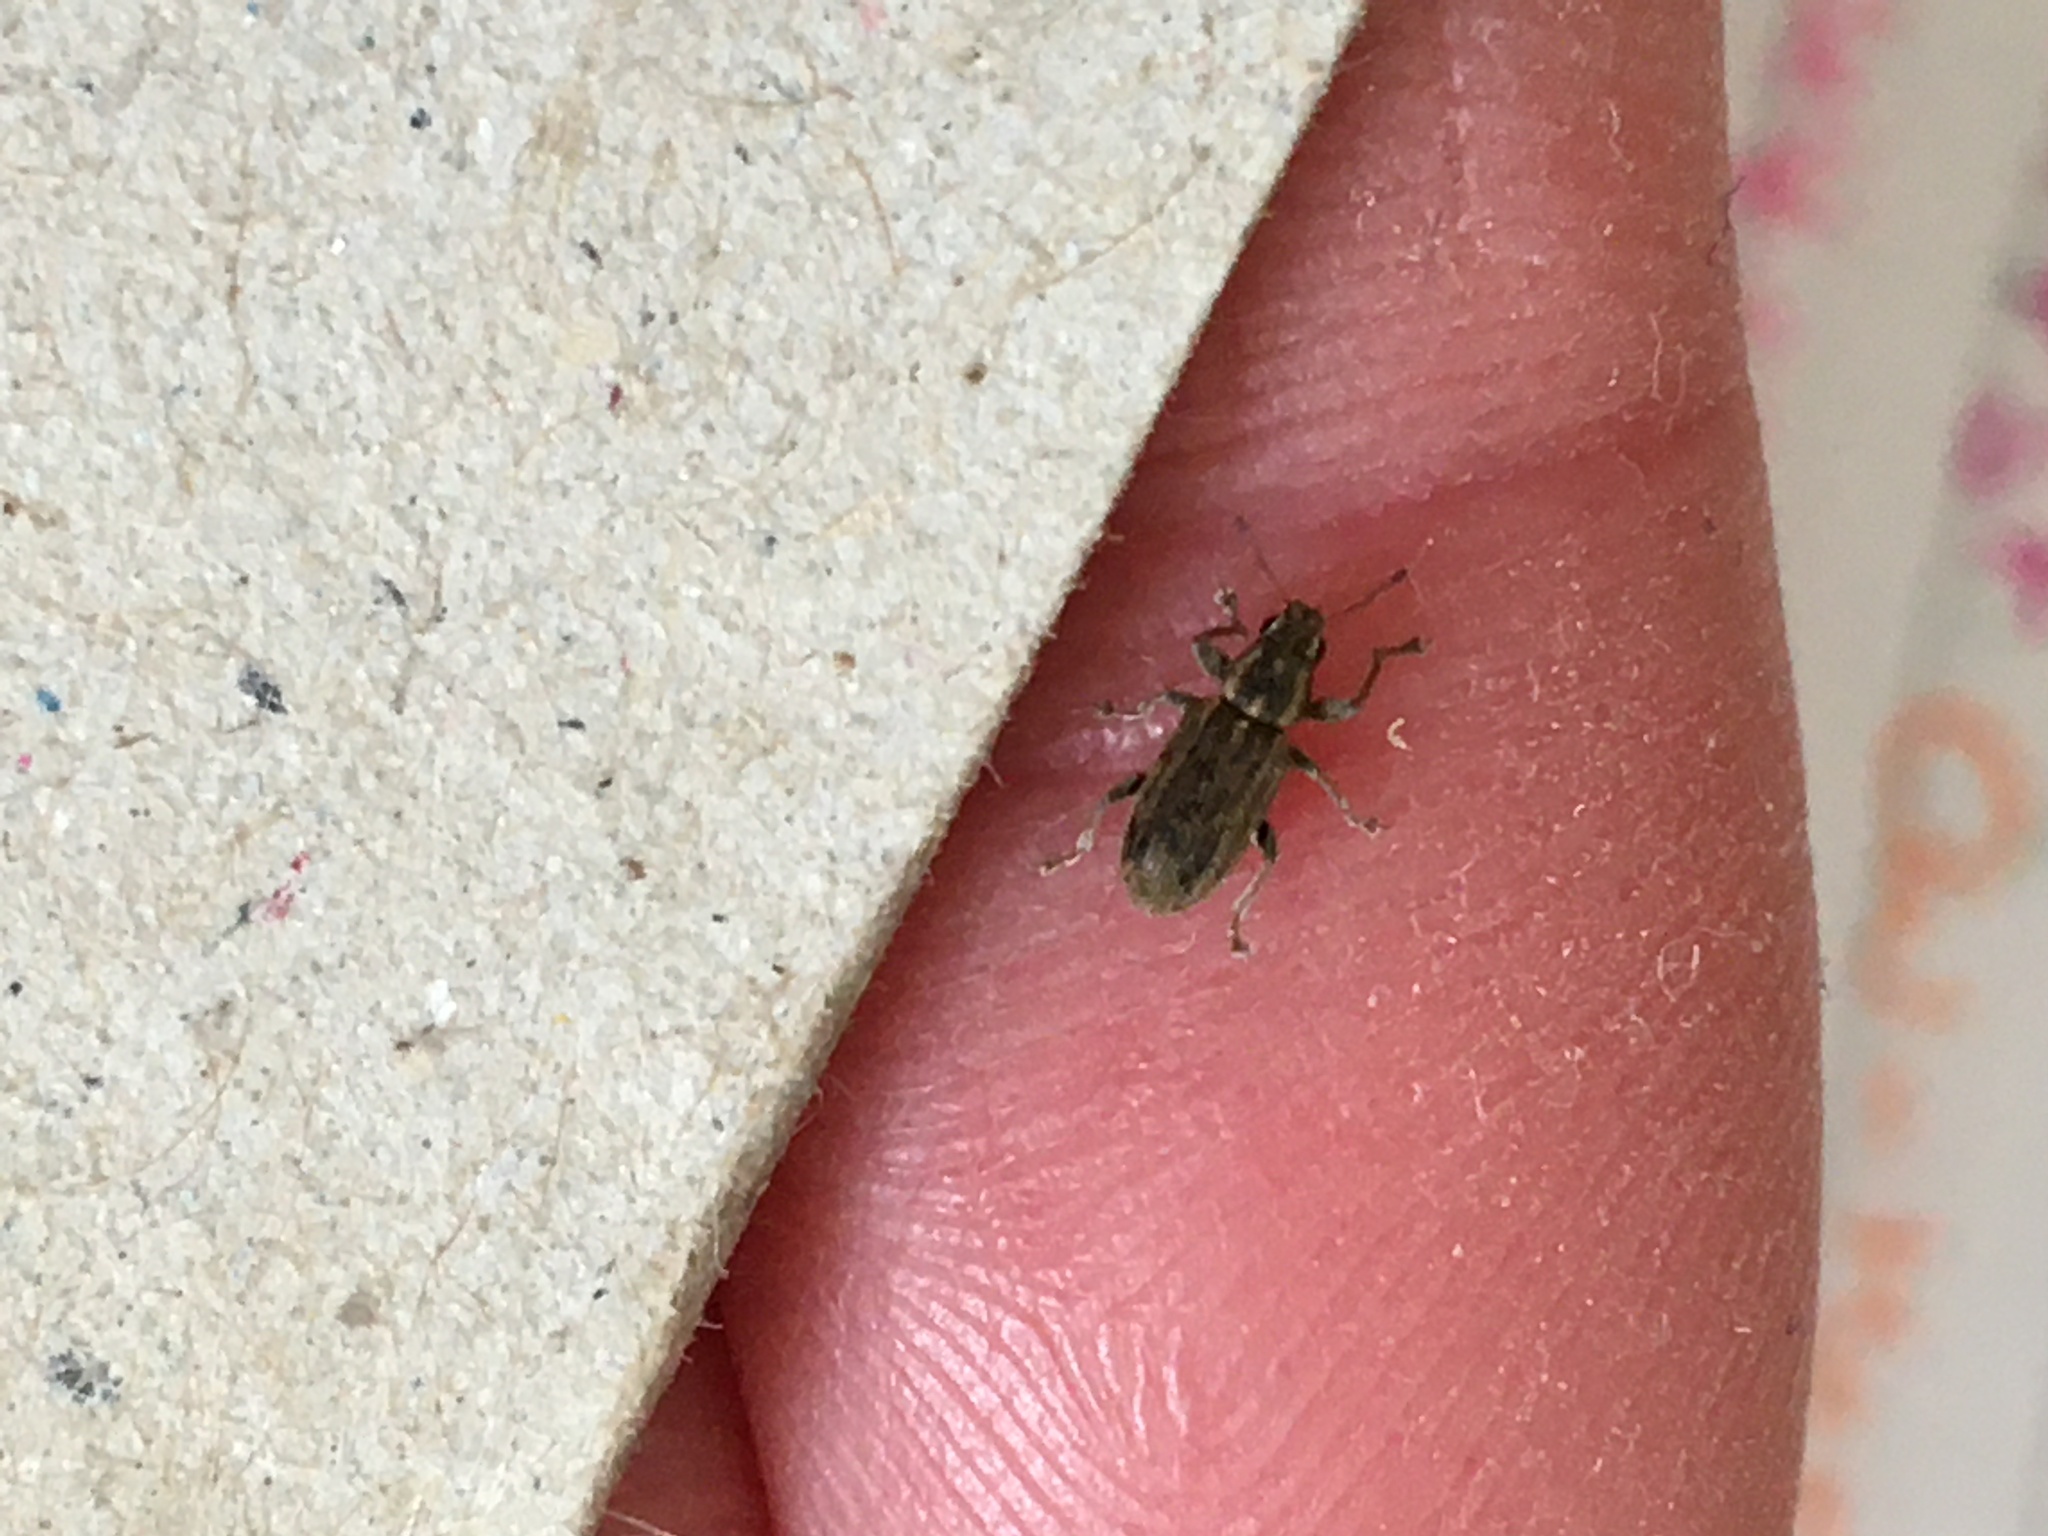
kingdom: Animalia
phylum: Arthropoda
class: Insecta
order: Coleoptera
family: Curculionidae
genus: Sitona
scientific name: Sitona lineatus
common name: Weevil
